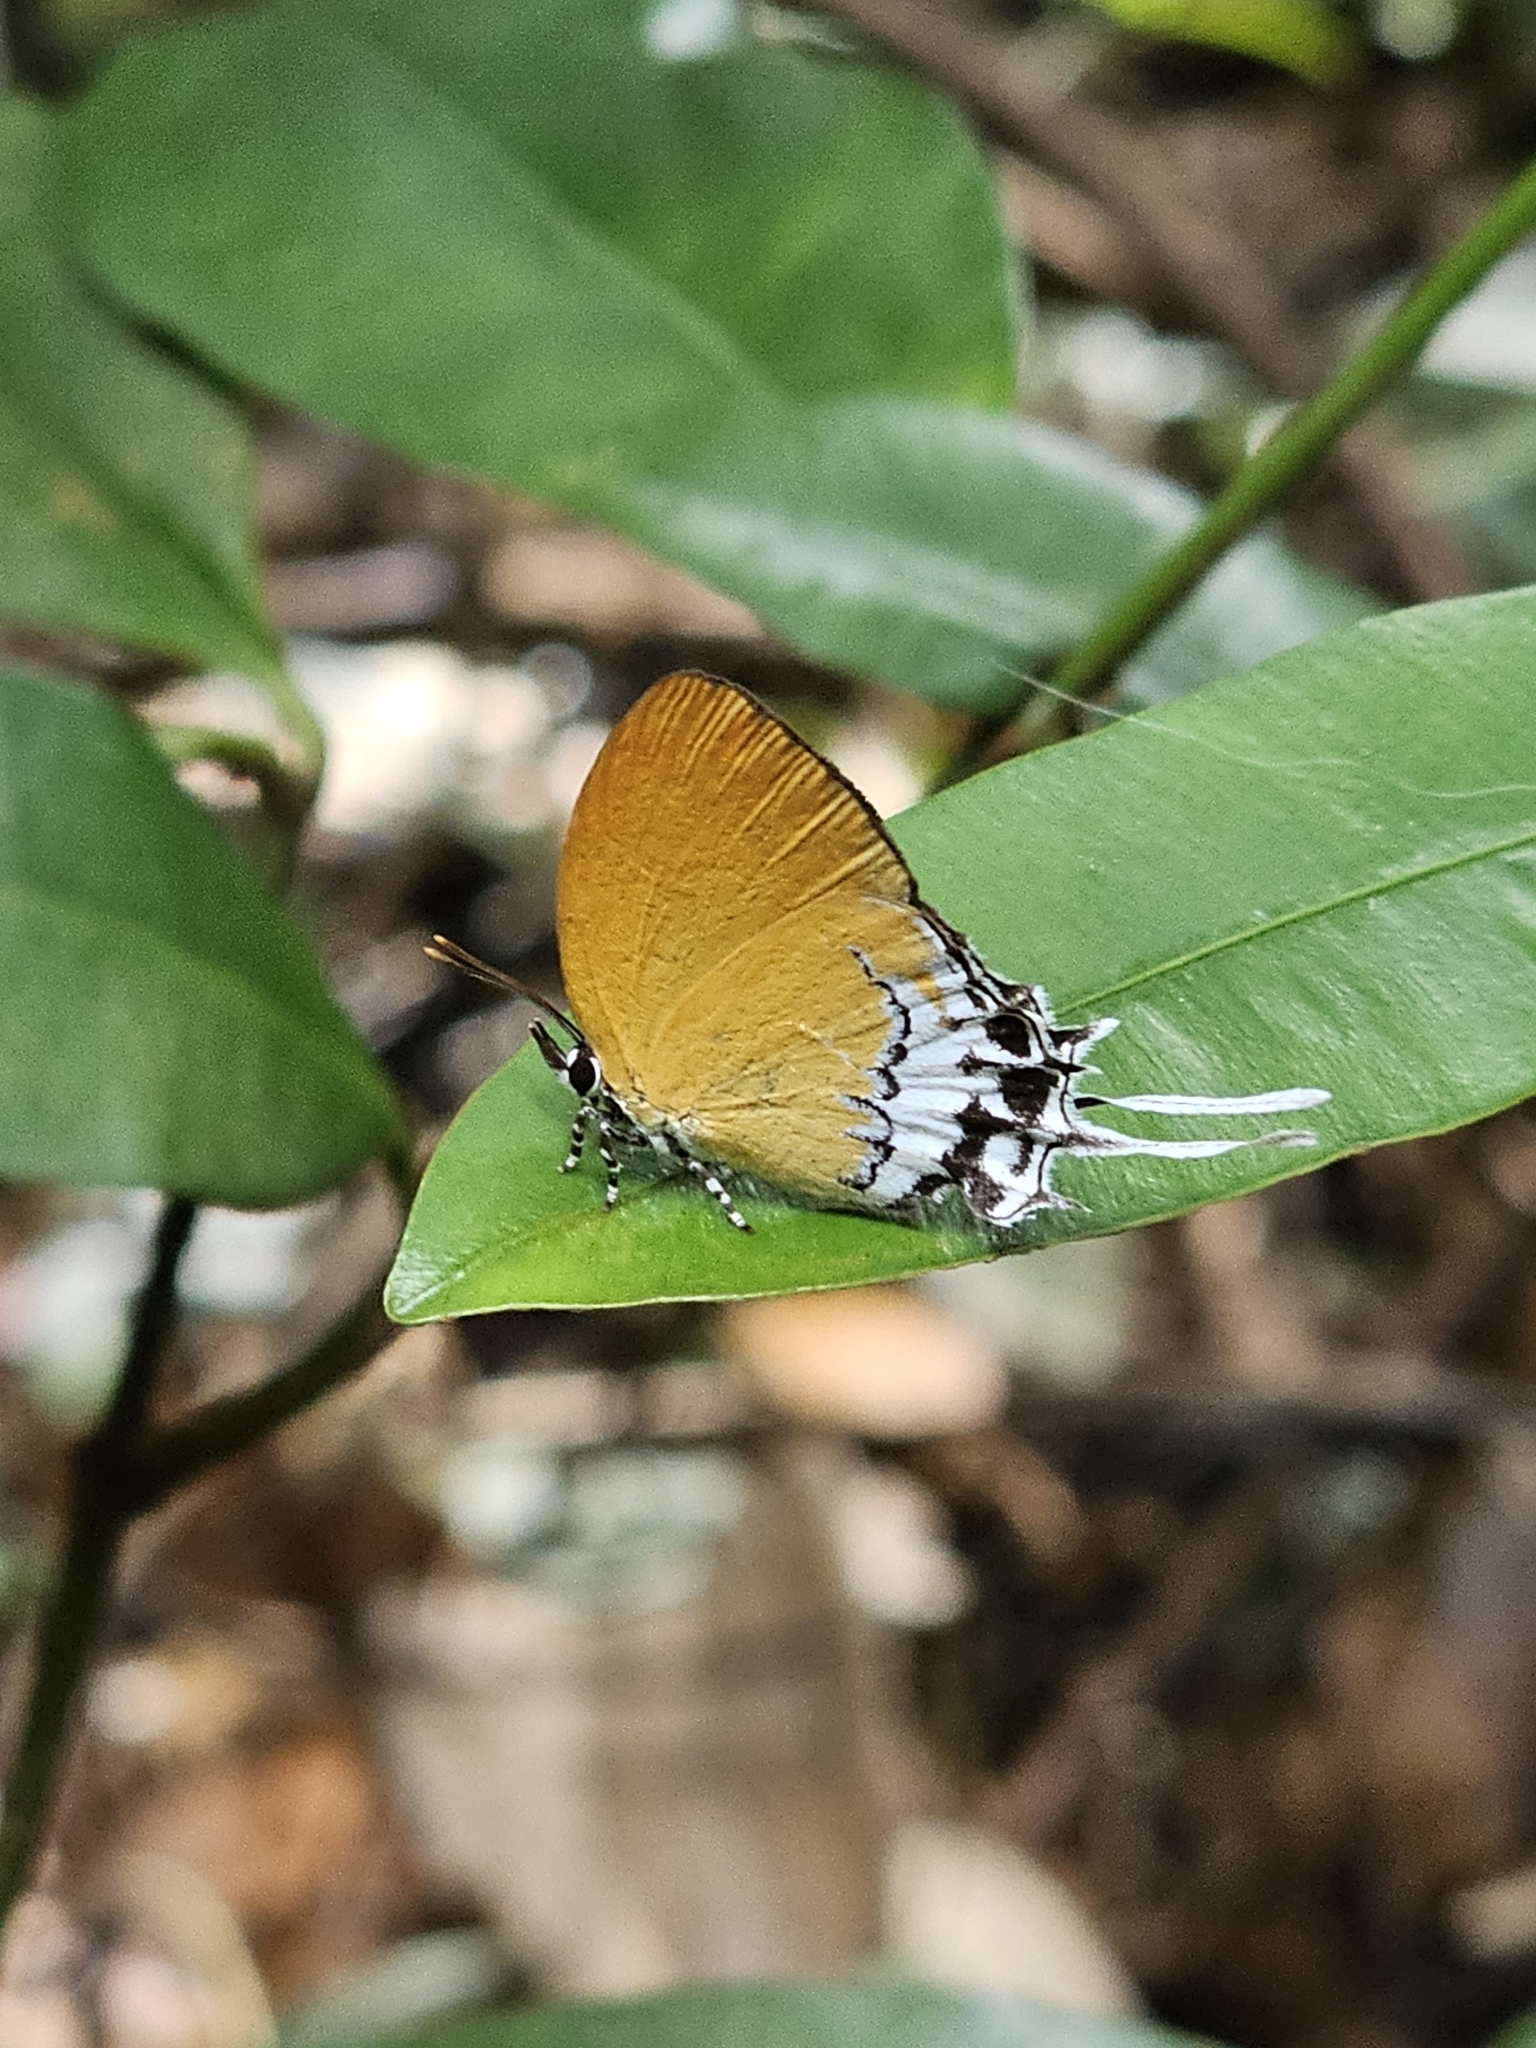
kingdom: Animalia
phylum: Arthropoda
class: Insecta
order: Lepidoptera
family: Lycaenidae
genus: Eooxylides
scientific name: Eooxylides tharis
